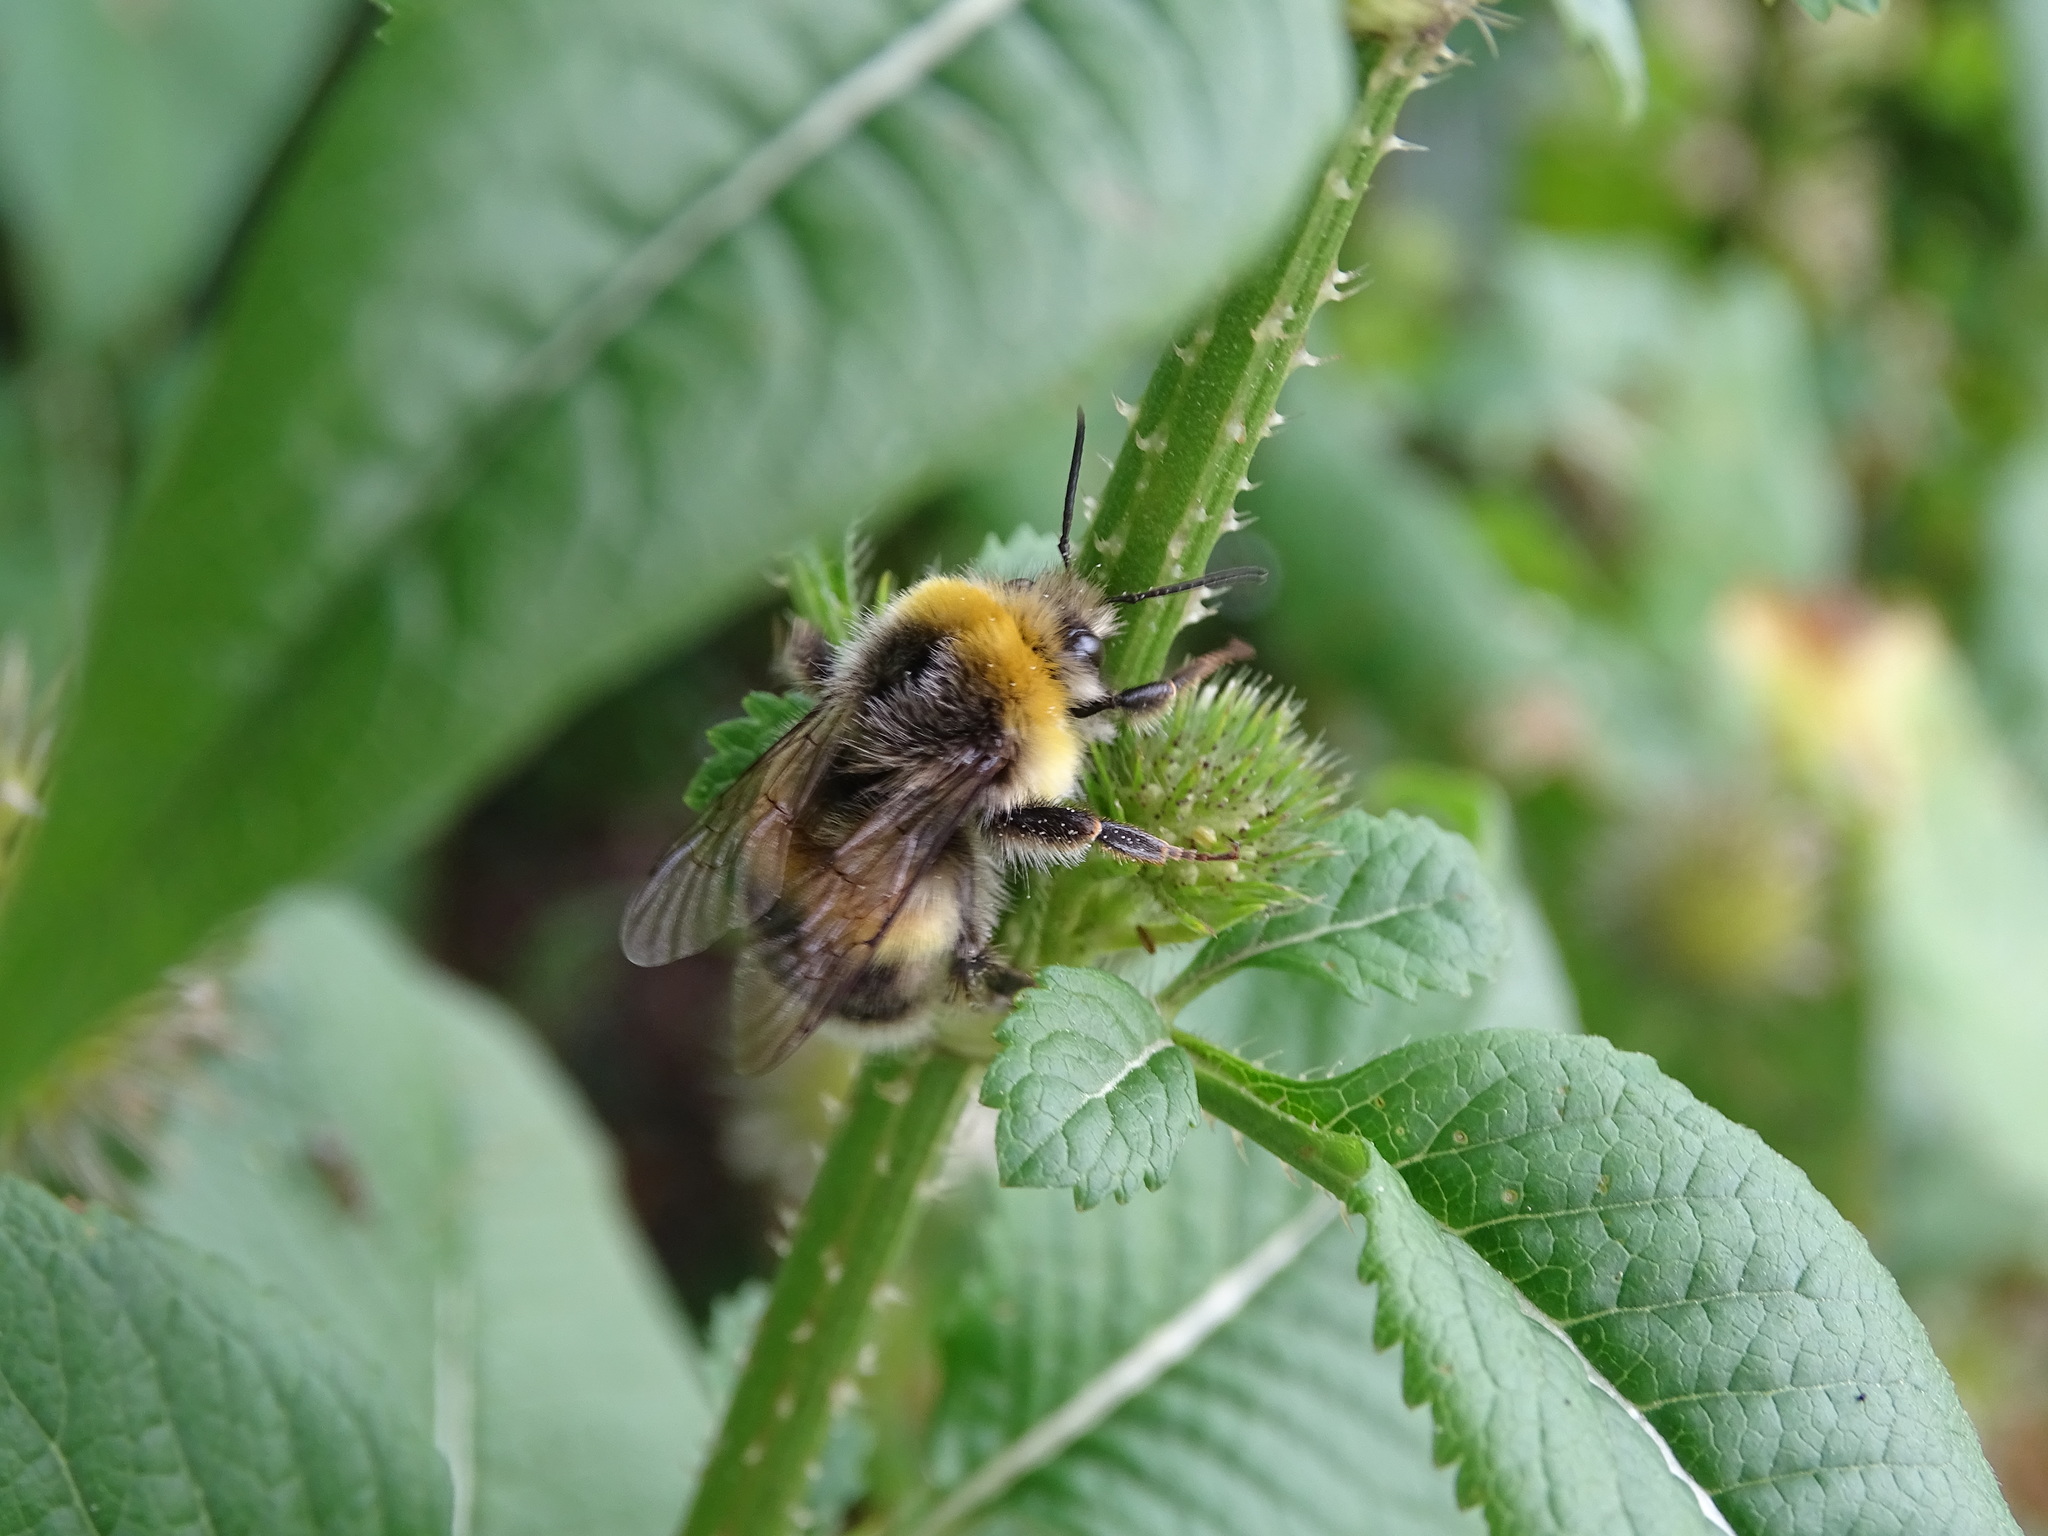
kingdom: Animalia
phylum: Arthropoda
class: Insecta
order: Hymenoptera
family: Apidae
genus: Bombus
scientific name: Bombus lucorum
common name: White-tailed bumblebee
